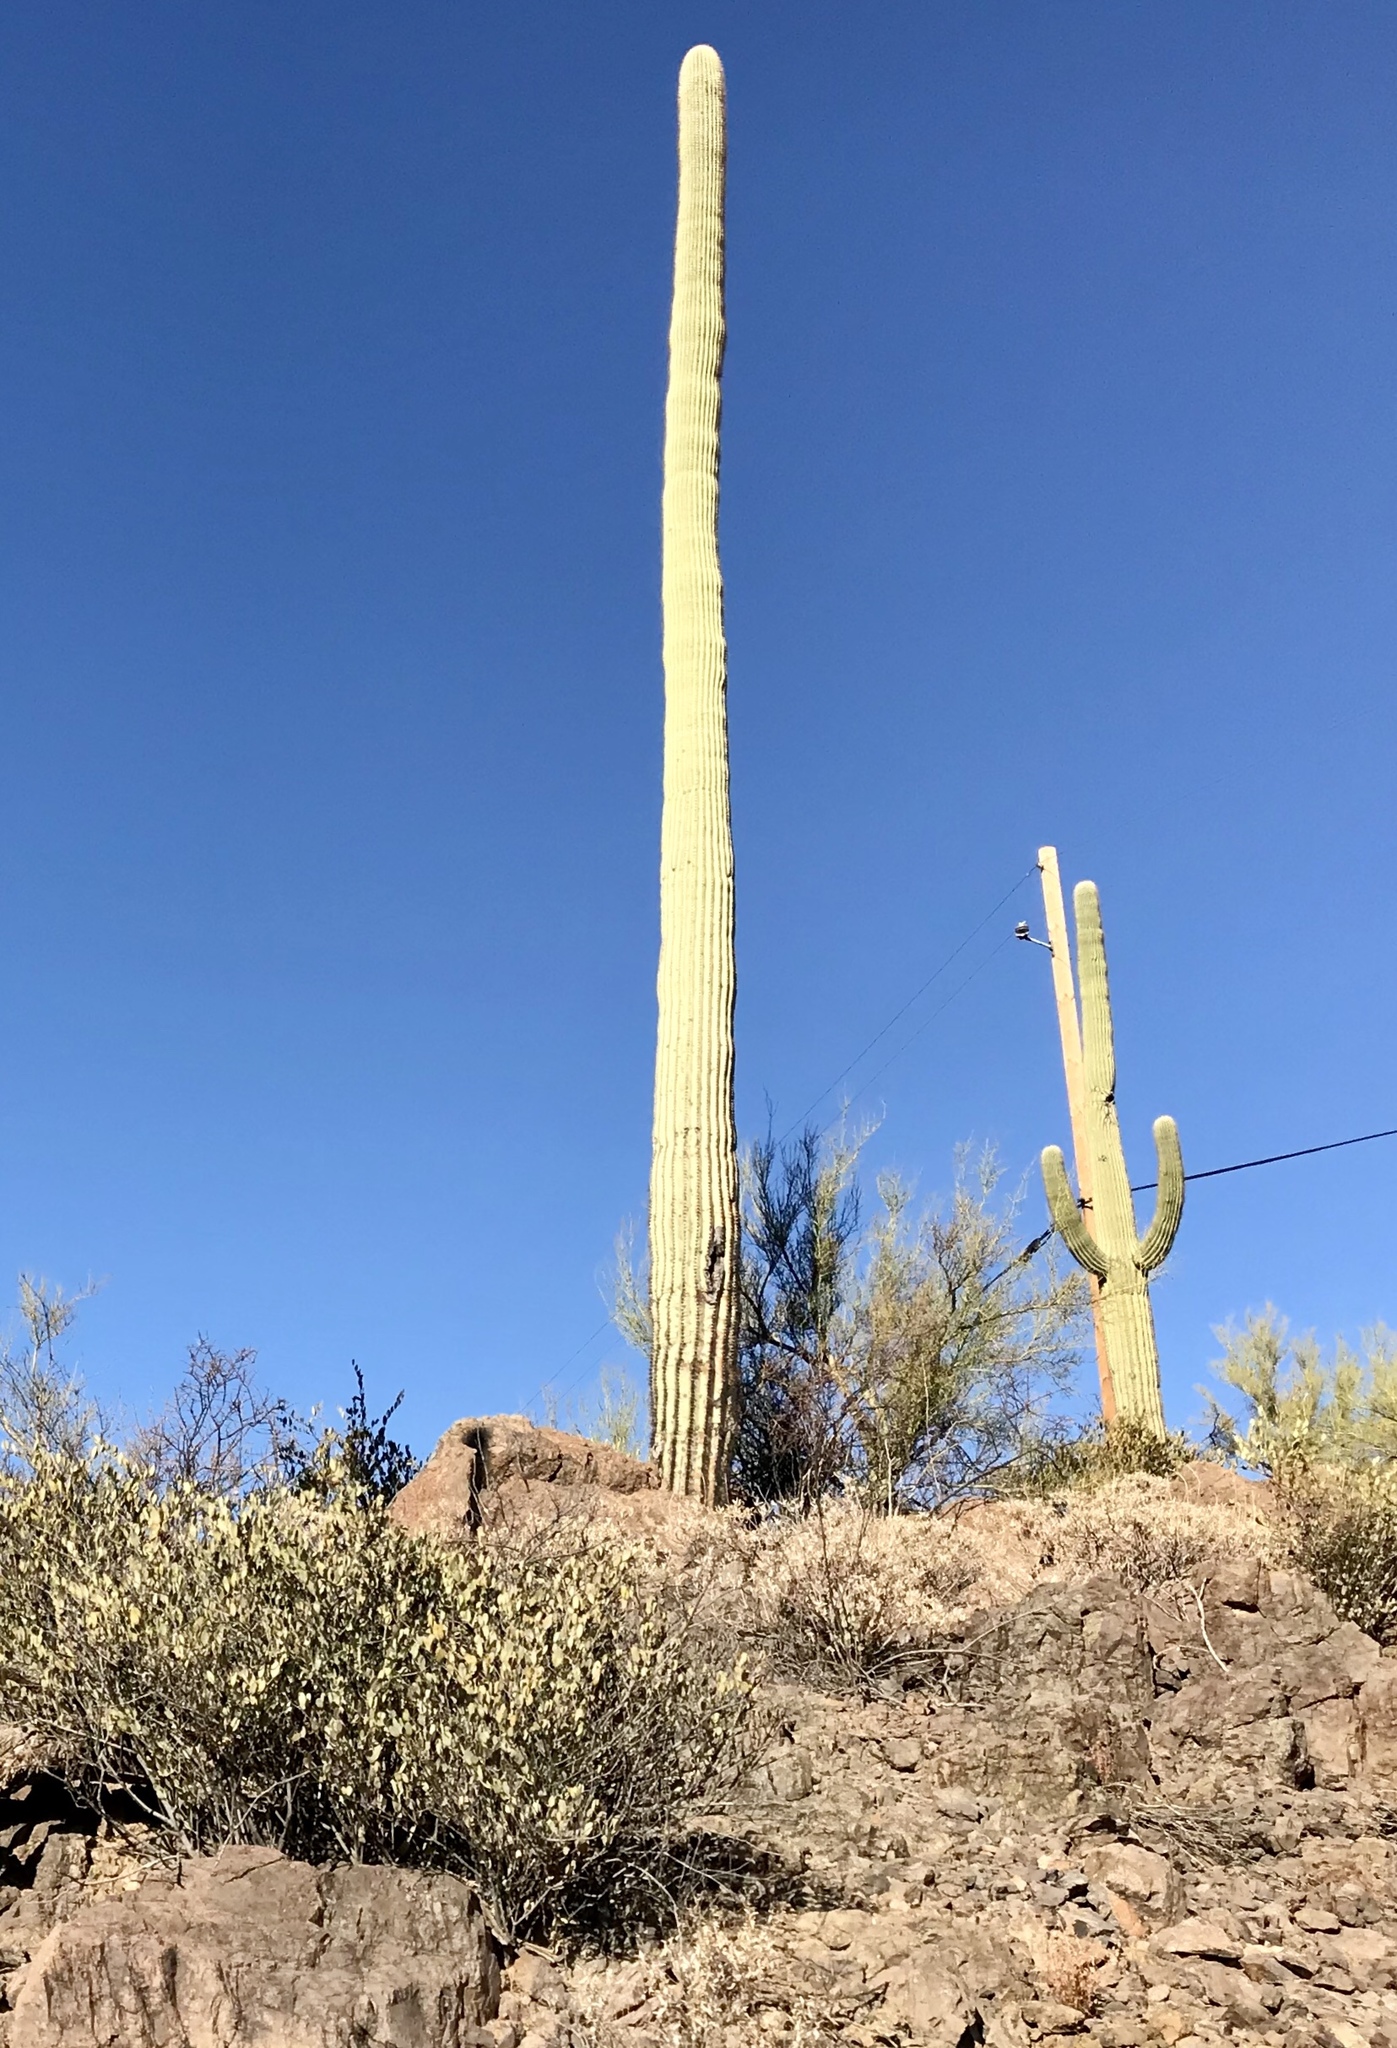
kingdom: Plantae
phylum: Tracheophyta
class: Magnoliopsida
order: Caryophyllales
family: Cactaceae
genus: Carnegiea
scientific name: Carnegiea gigantea
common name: Saguaro
